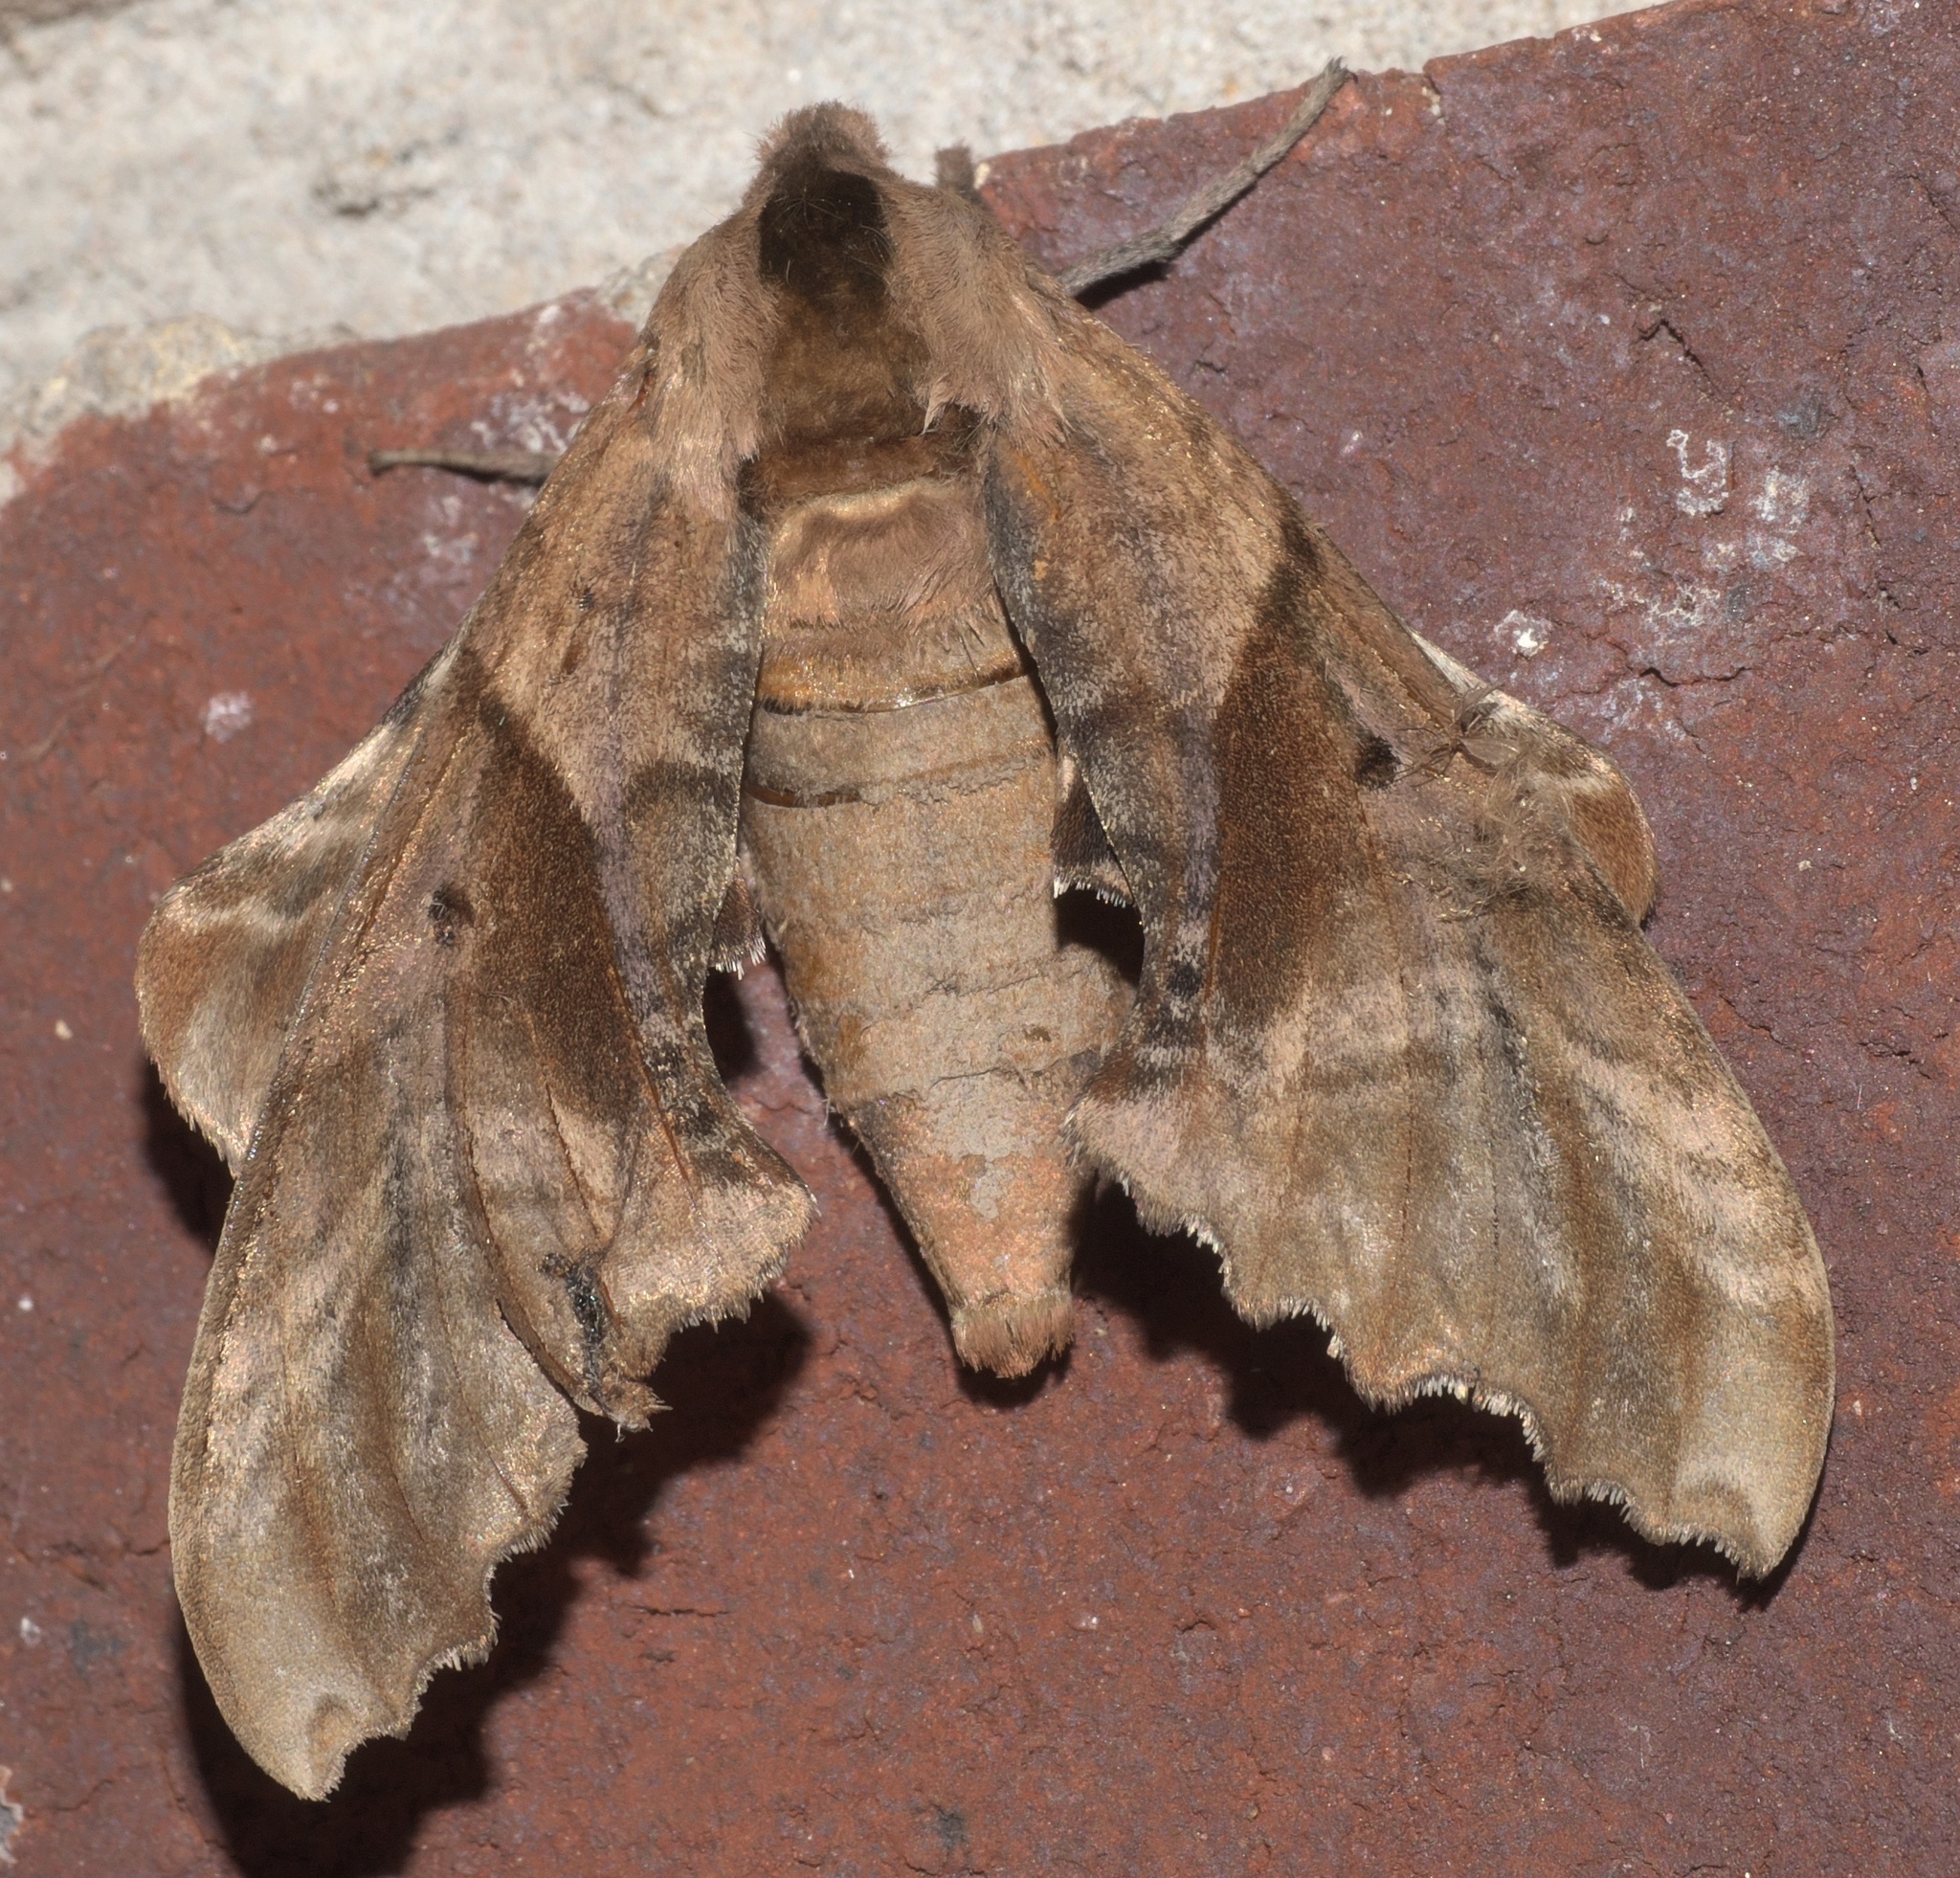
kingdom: Animalia
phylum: Arthropoda
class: Insecta
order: Lepidoptera
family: Sphingidae
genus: Paonias
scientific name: Paonias excaecata
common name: Blind-eyed sphinx
